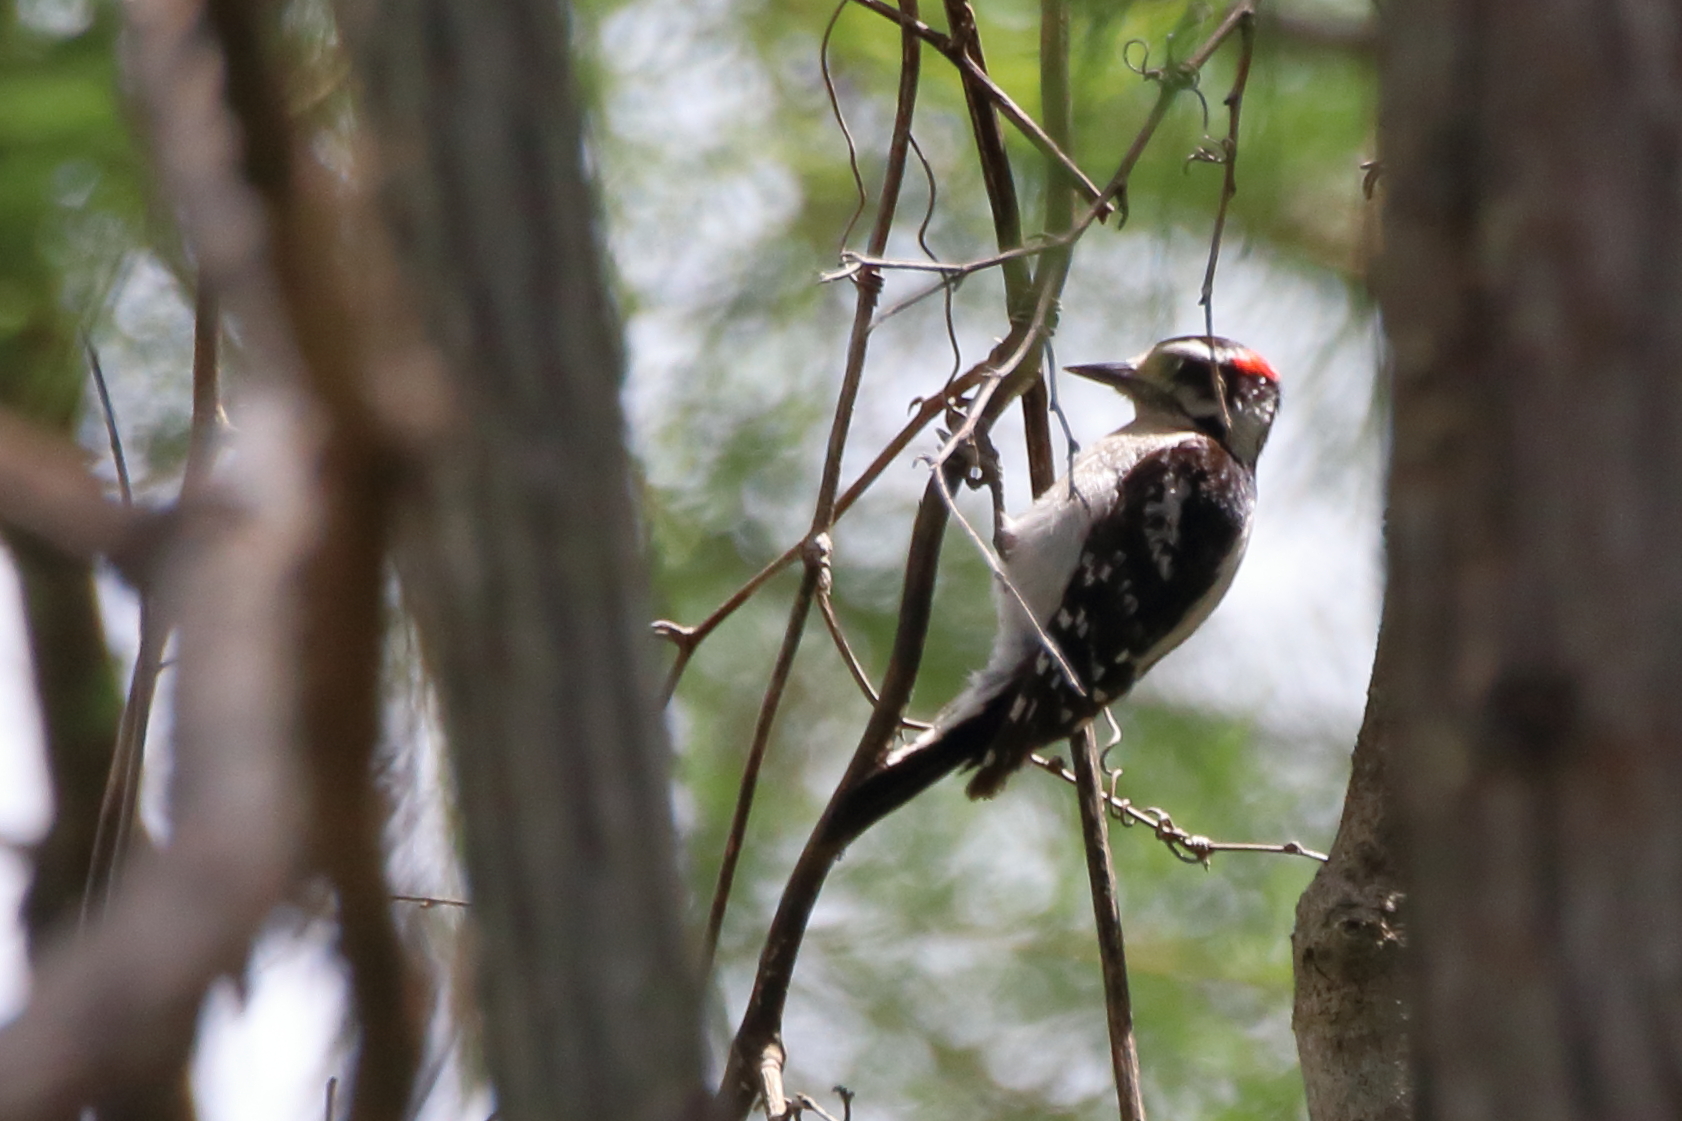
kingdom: Animalia
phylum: Chordata
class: Aves
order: Piciformes
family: Picidae
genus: Dryobates
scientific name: Dryobates pubescens
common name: Downy woodpecker
